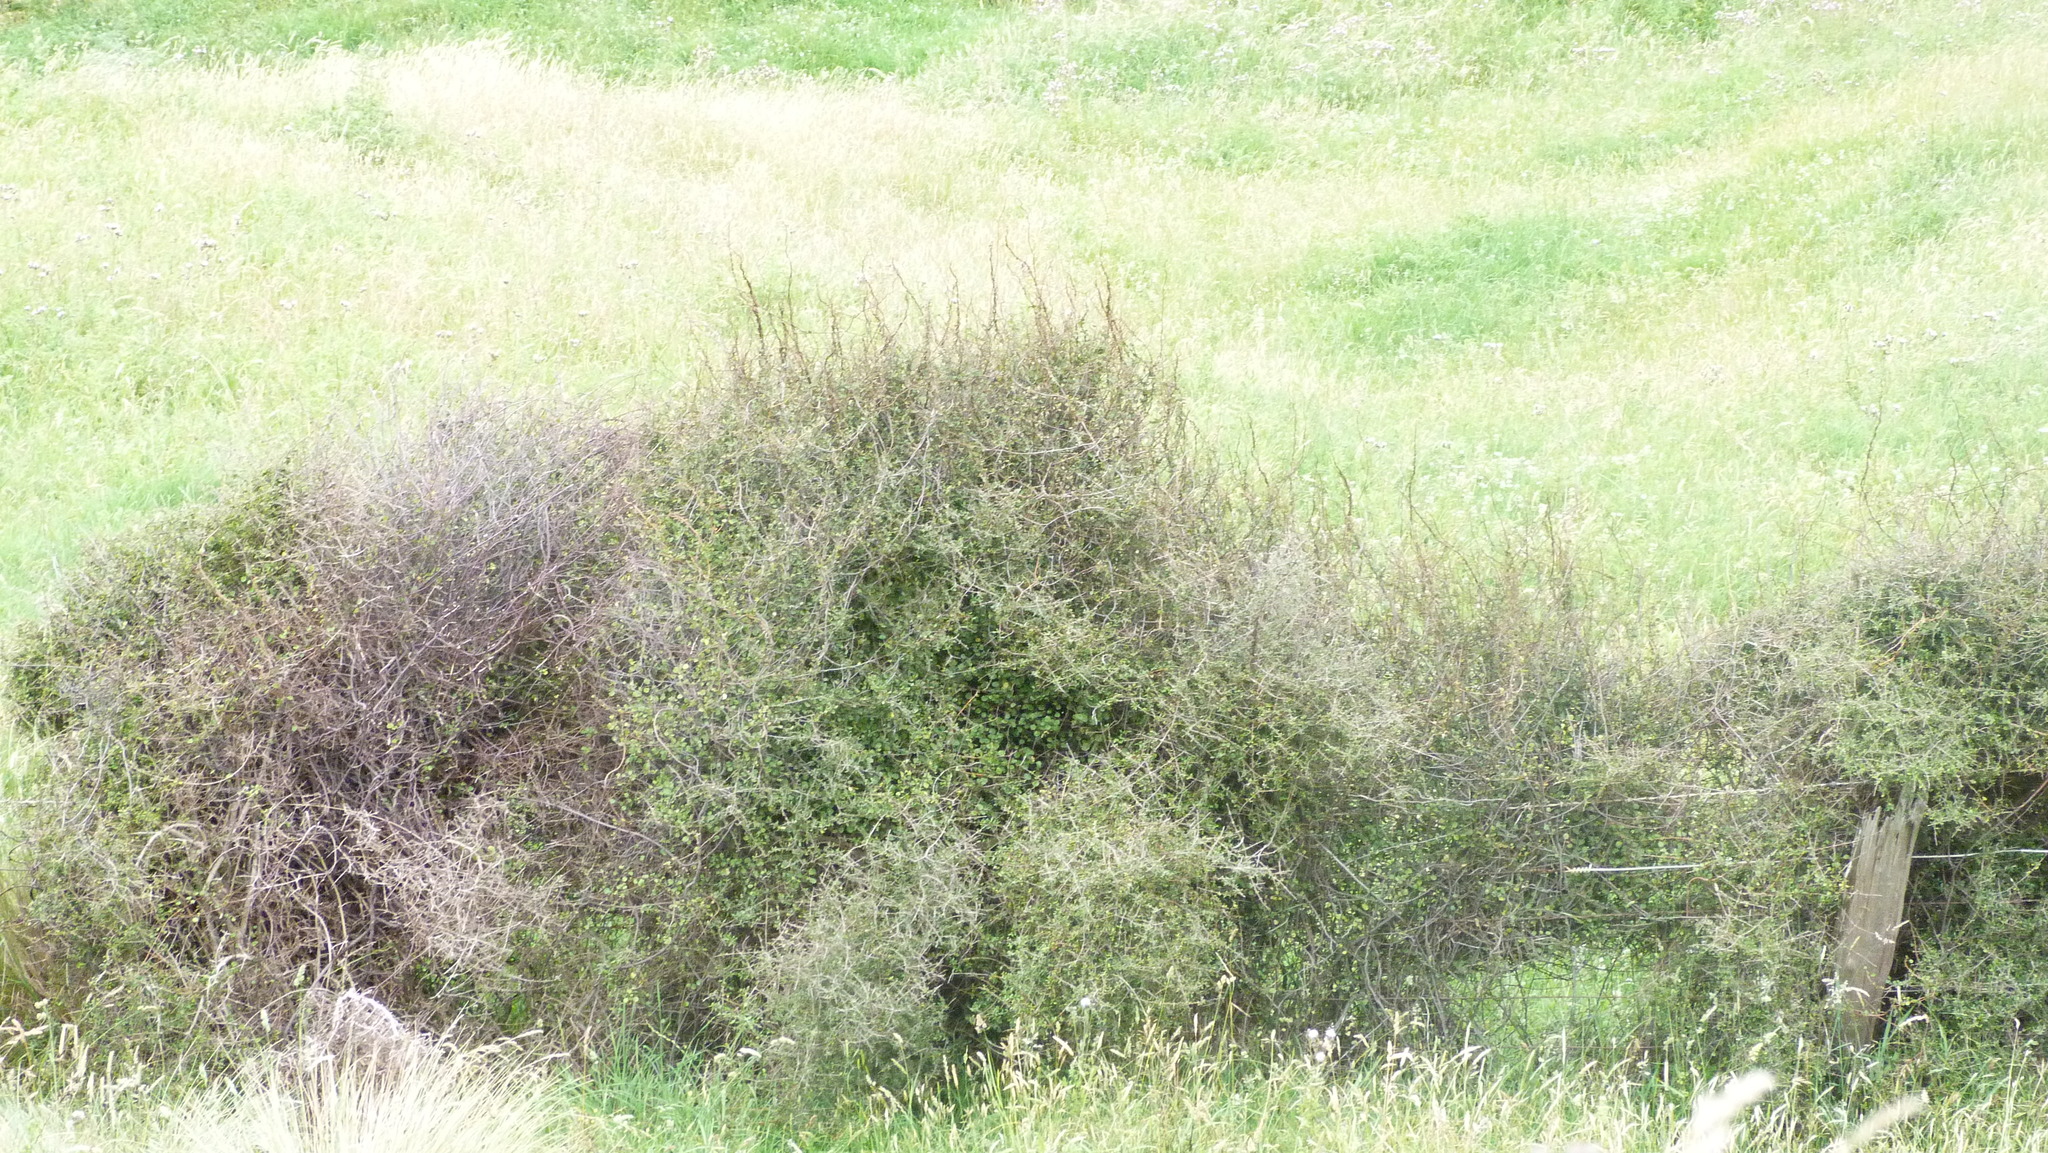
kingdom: Plantae
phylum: Tracheophyta
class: Magnoliopsida
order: Caryophyllales
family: Polygonaceae
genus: Muehlenbeckia
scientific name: Muehlenbeckia complexa
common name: Wireplant
